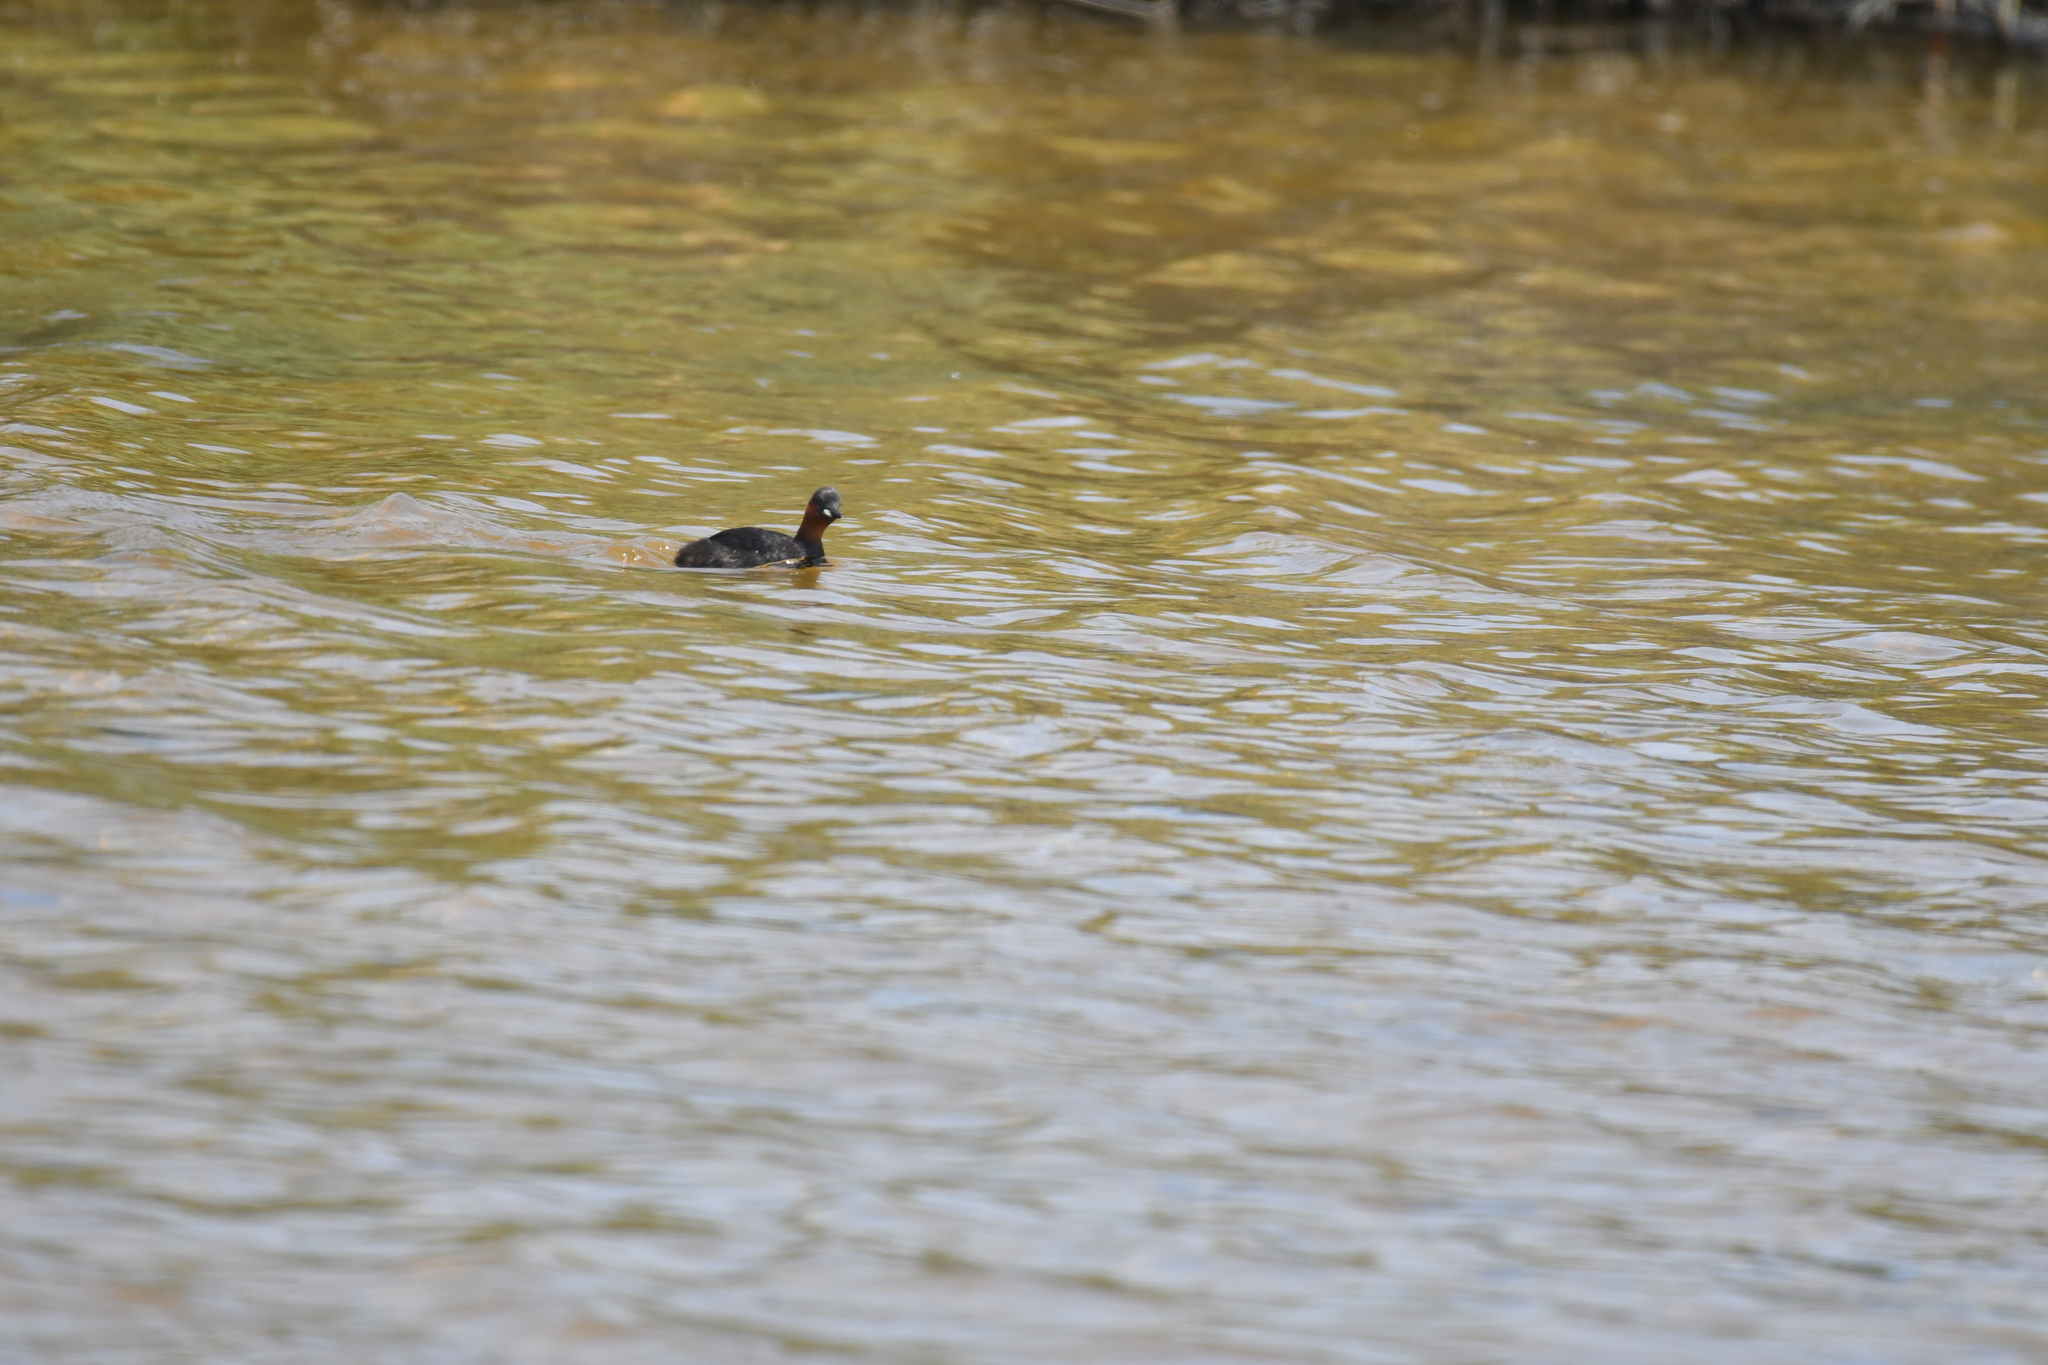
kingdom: Animalia
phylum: Chordata
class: Aves
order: Podicipediformes
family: Podicipedidae
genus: Tachybaptus
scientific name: Tachybaptus ruficollis
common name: Little grebe
